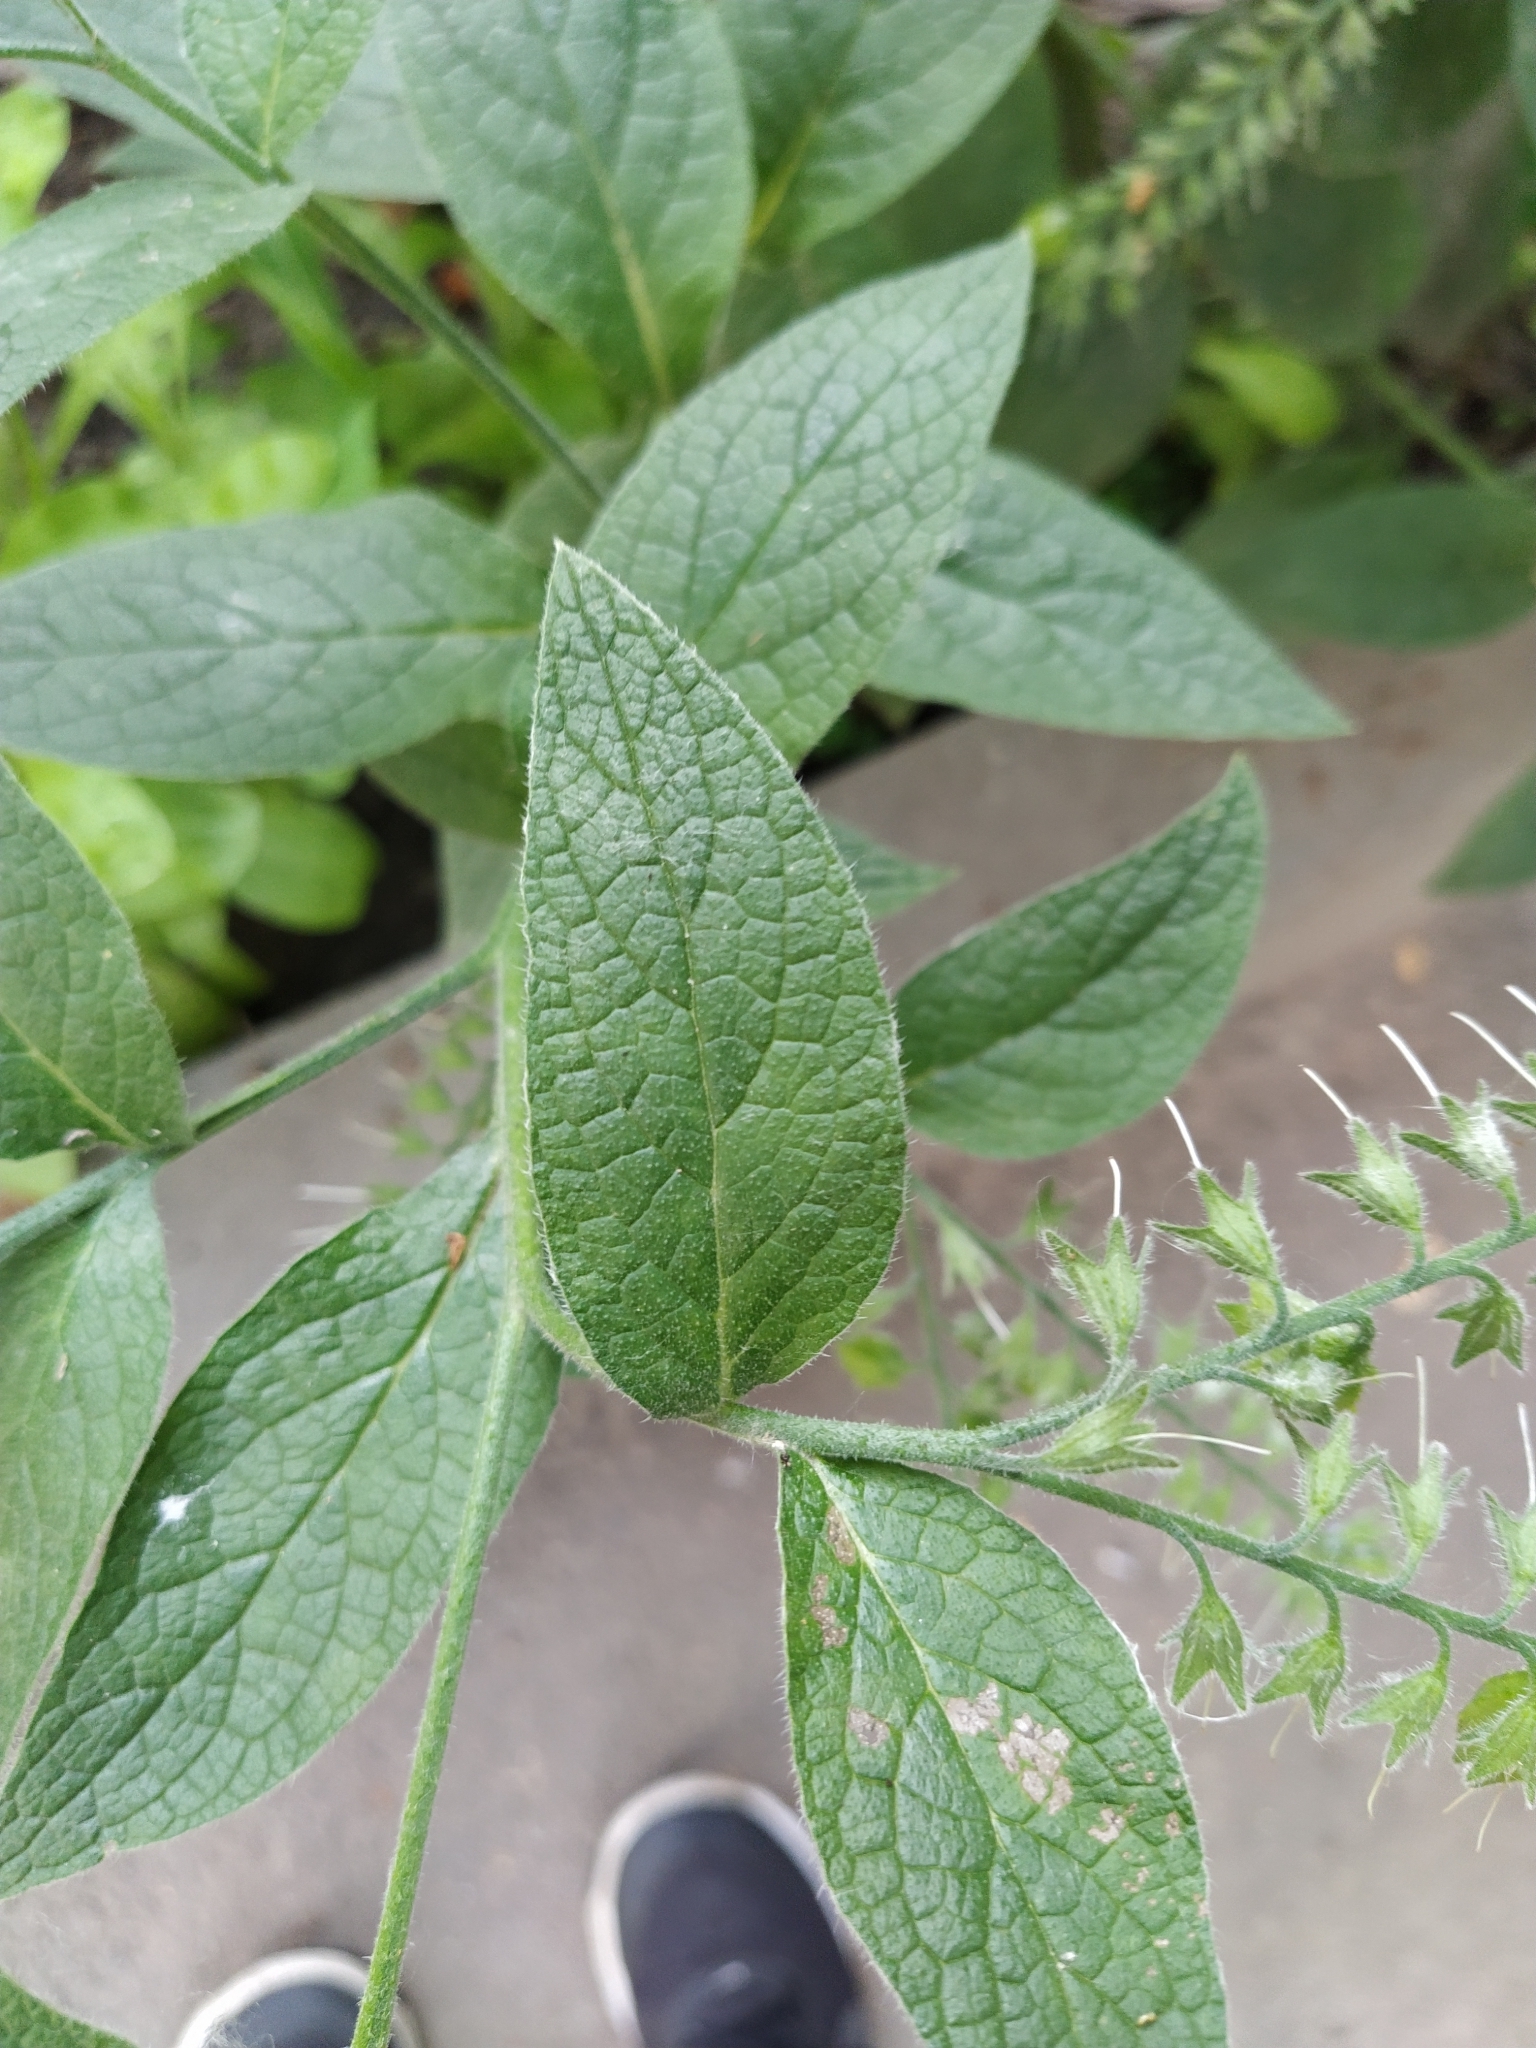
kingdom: Plantae
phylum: Tracheophyta
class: Magnoliopsida
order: Boraginales
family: Boraginaceae
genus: Symphytum
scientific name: Symphytum caucasicum
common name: Caucasian comfrey
